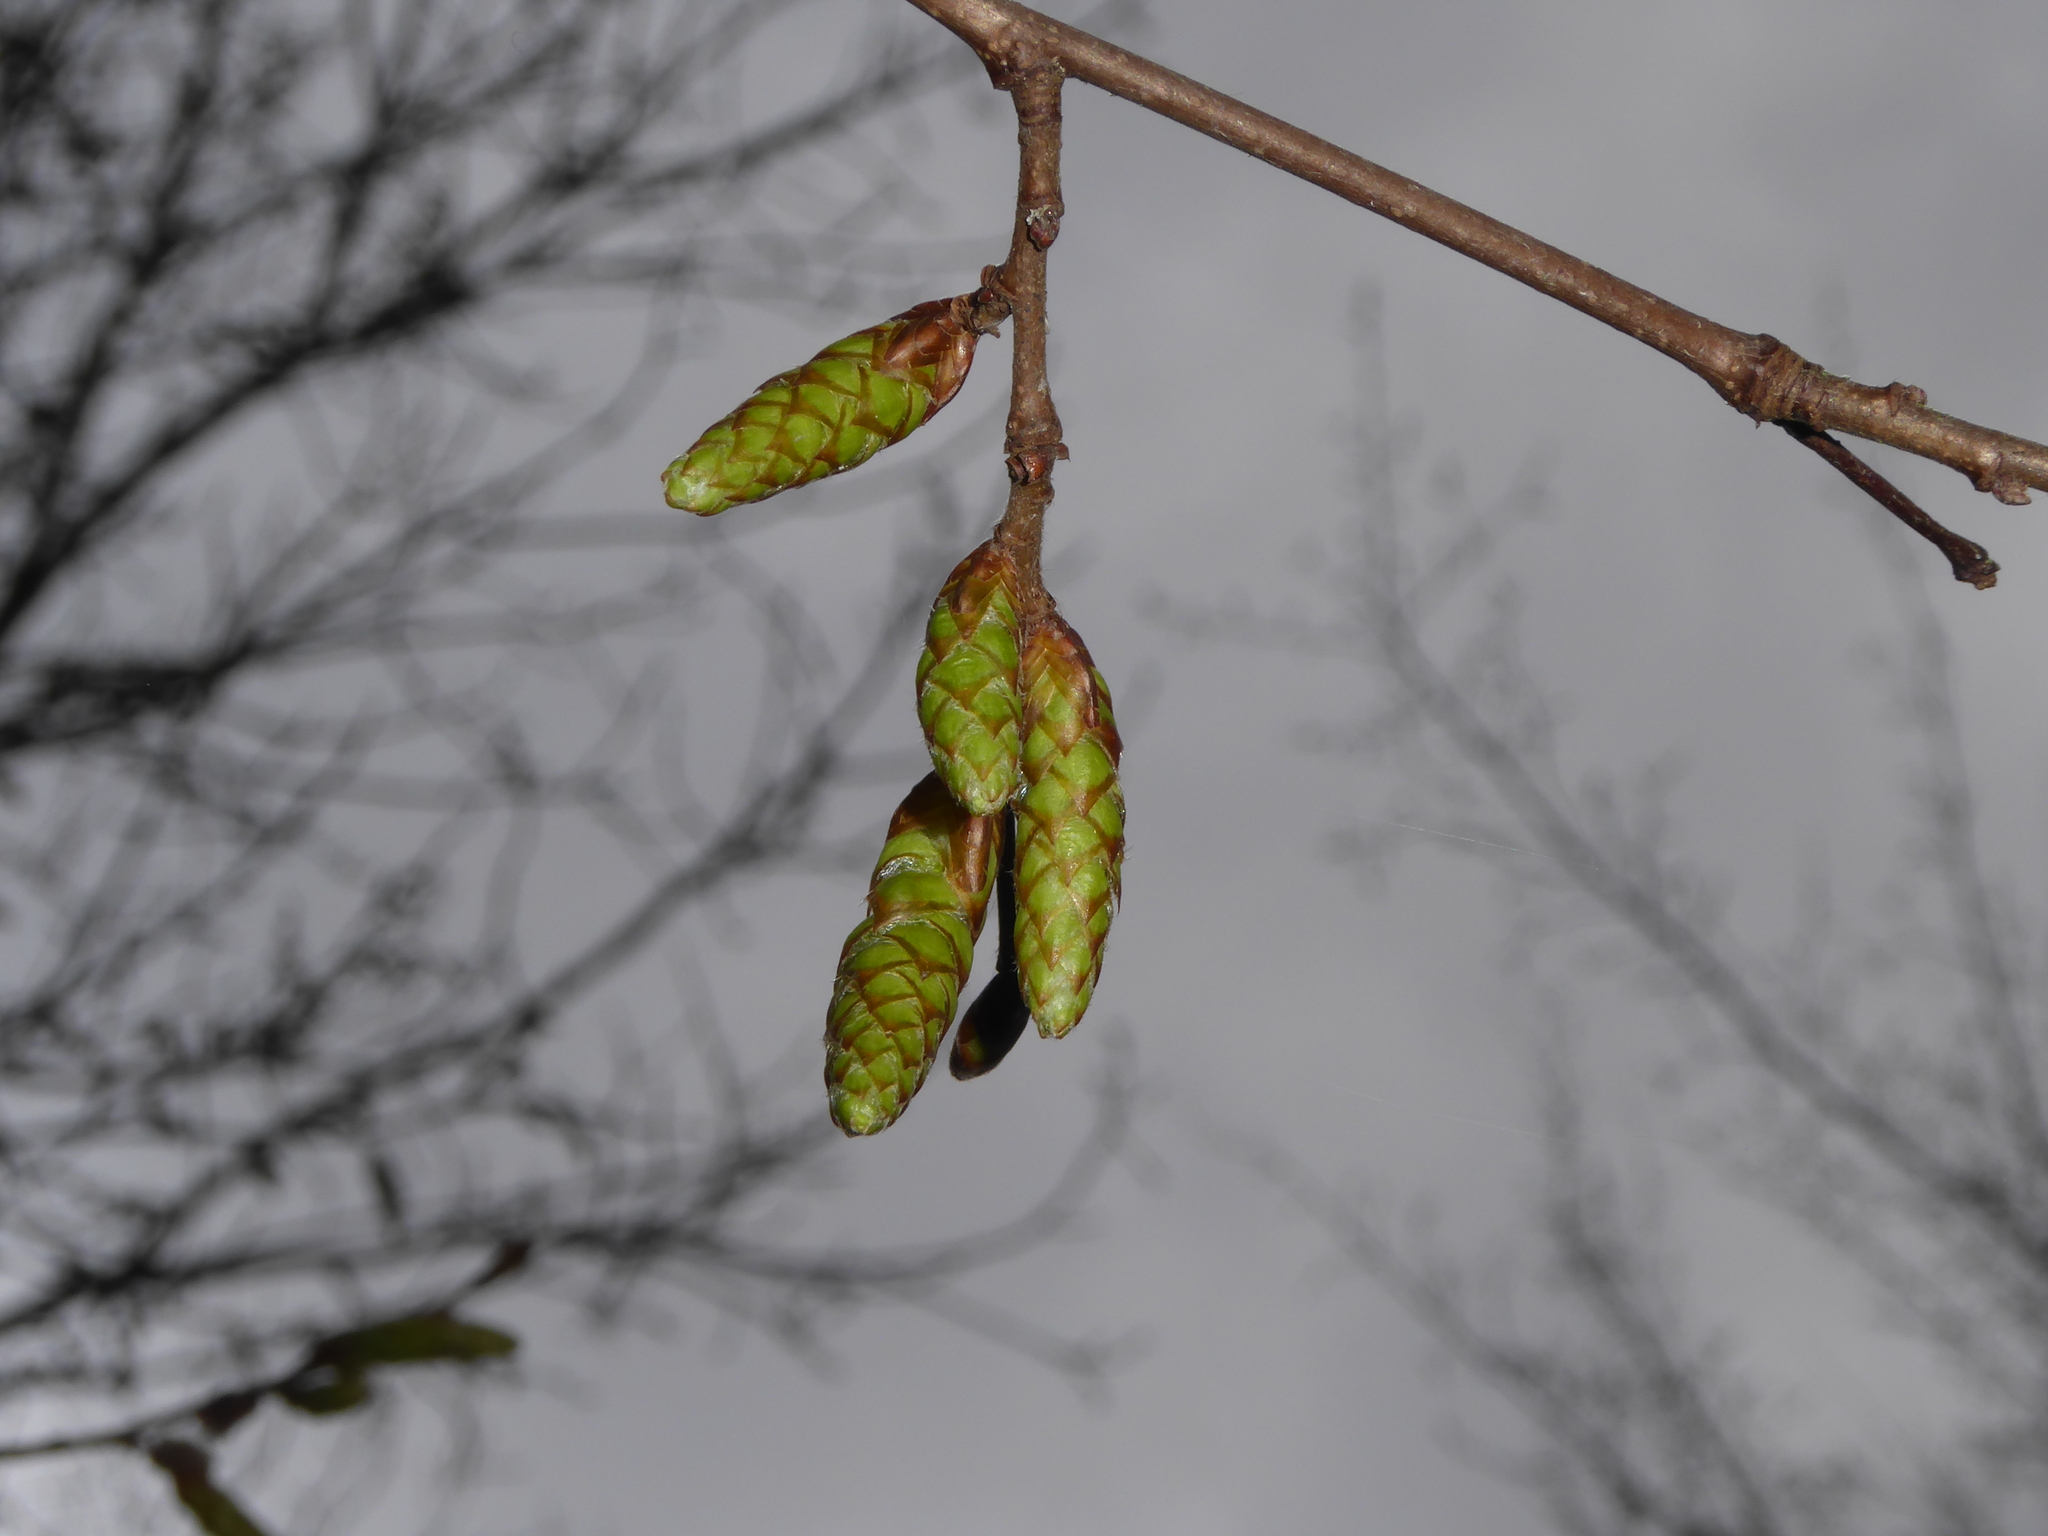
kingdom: Plantae
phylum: Tracheophyta
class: Magnoliopsida
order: Fagales
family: Betulaceae
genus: Carpinus
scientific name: Carpinus betulus
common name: Hornbeam
